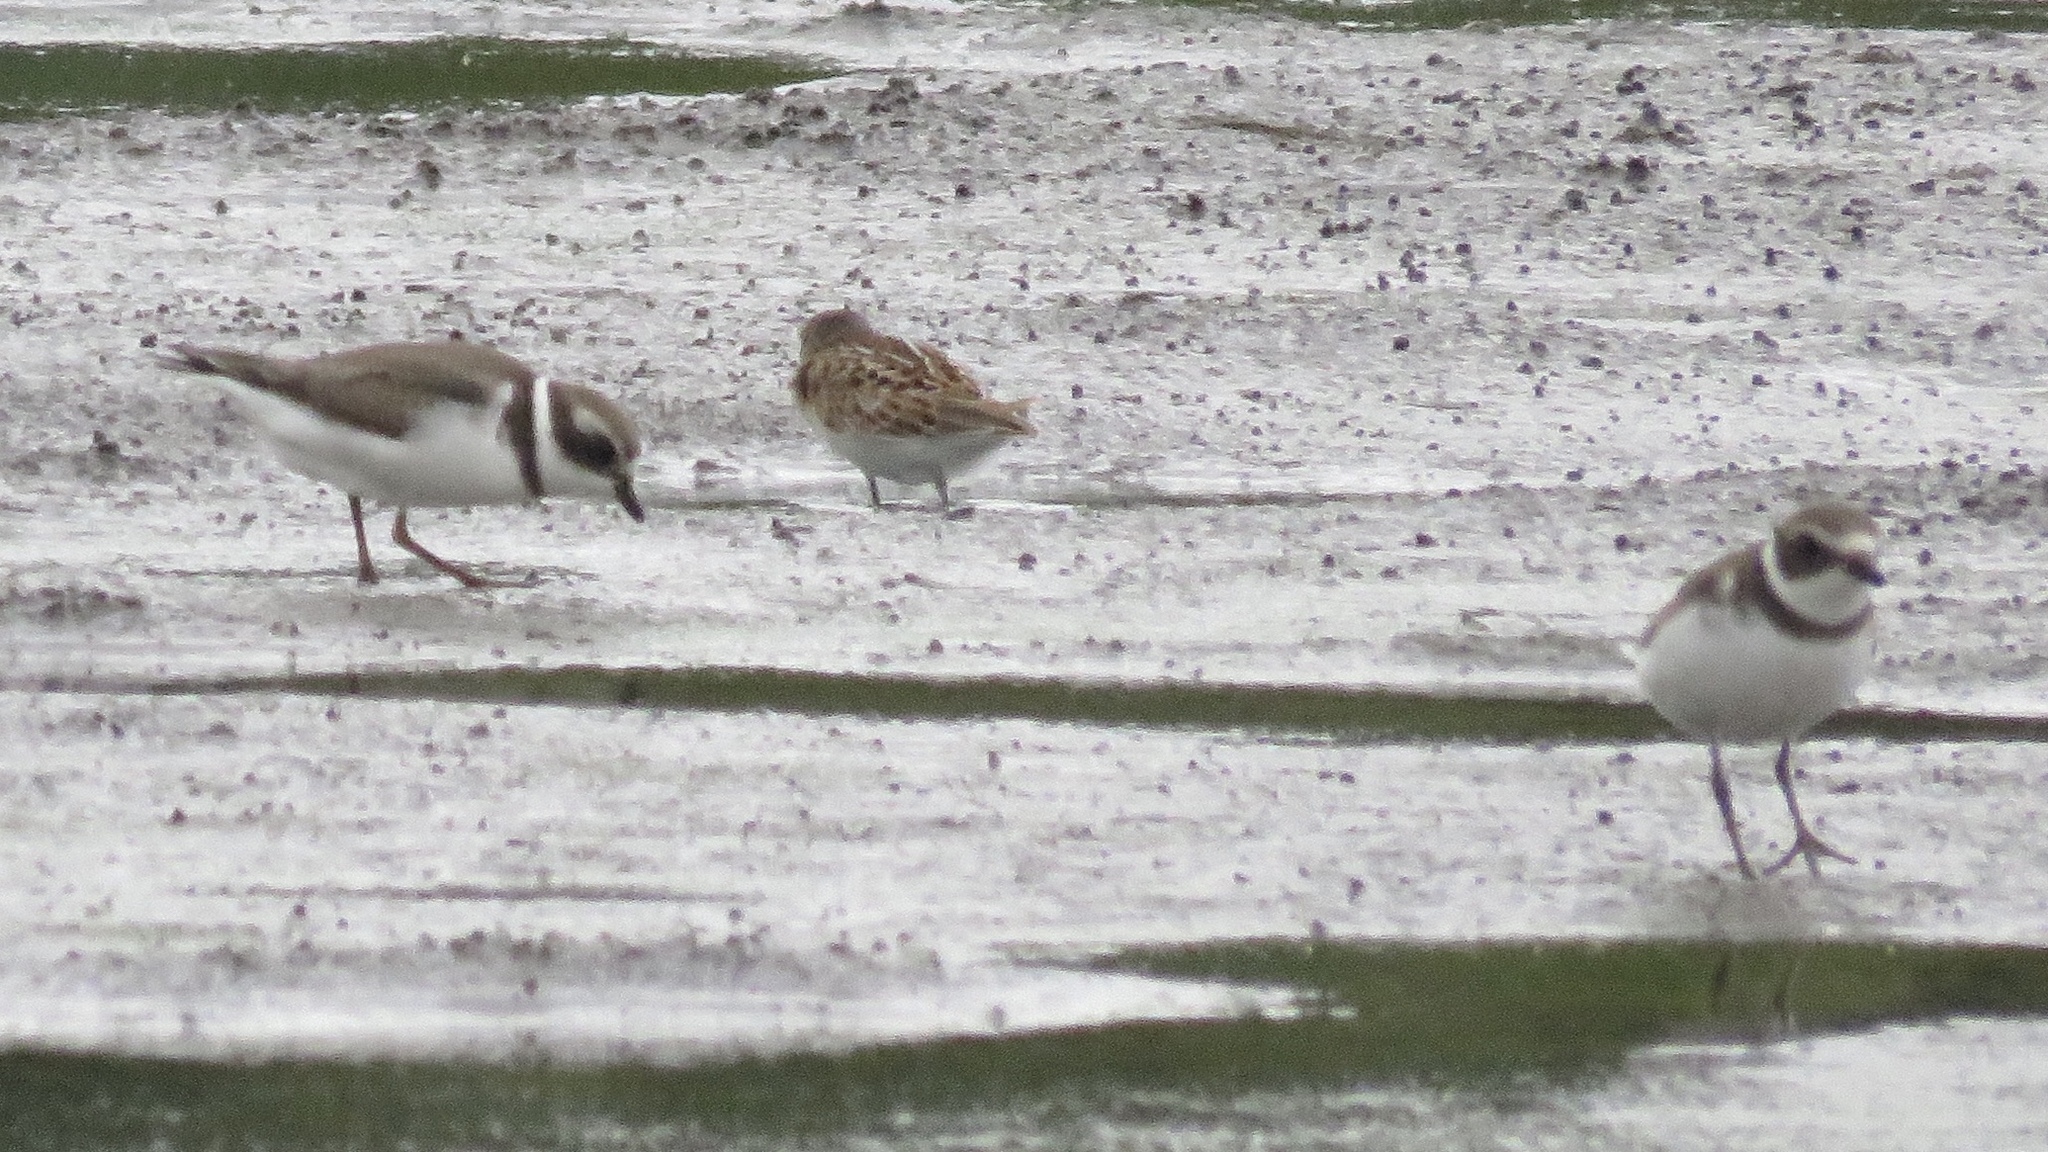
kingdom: Animalia
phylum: Chordata
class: Aves
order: Charadriiformes
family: Charadriidae
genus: Charadrius
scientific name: Charadrius semipalmatus
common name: Semipalmated plover
